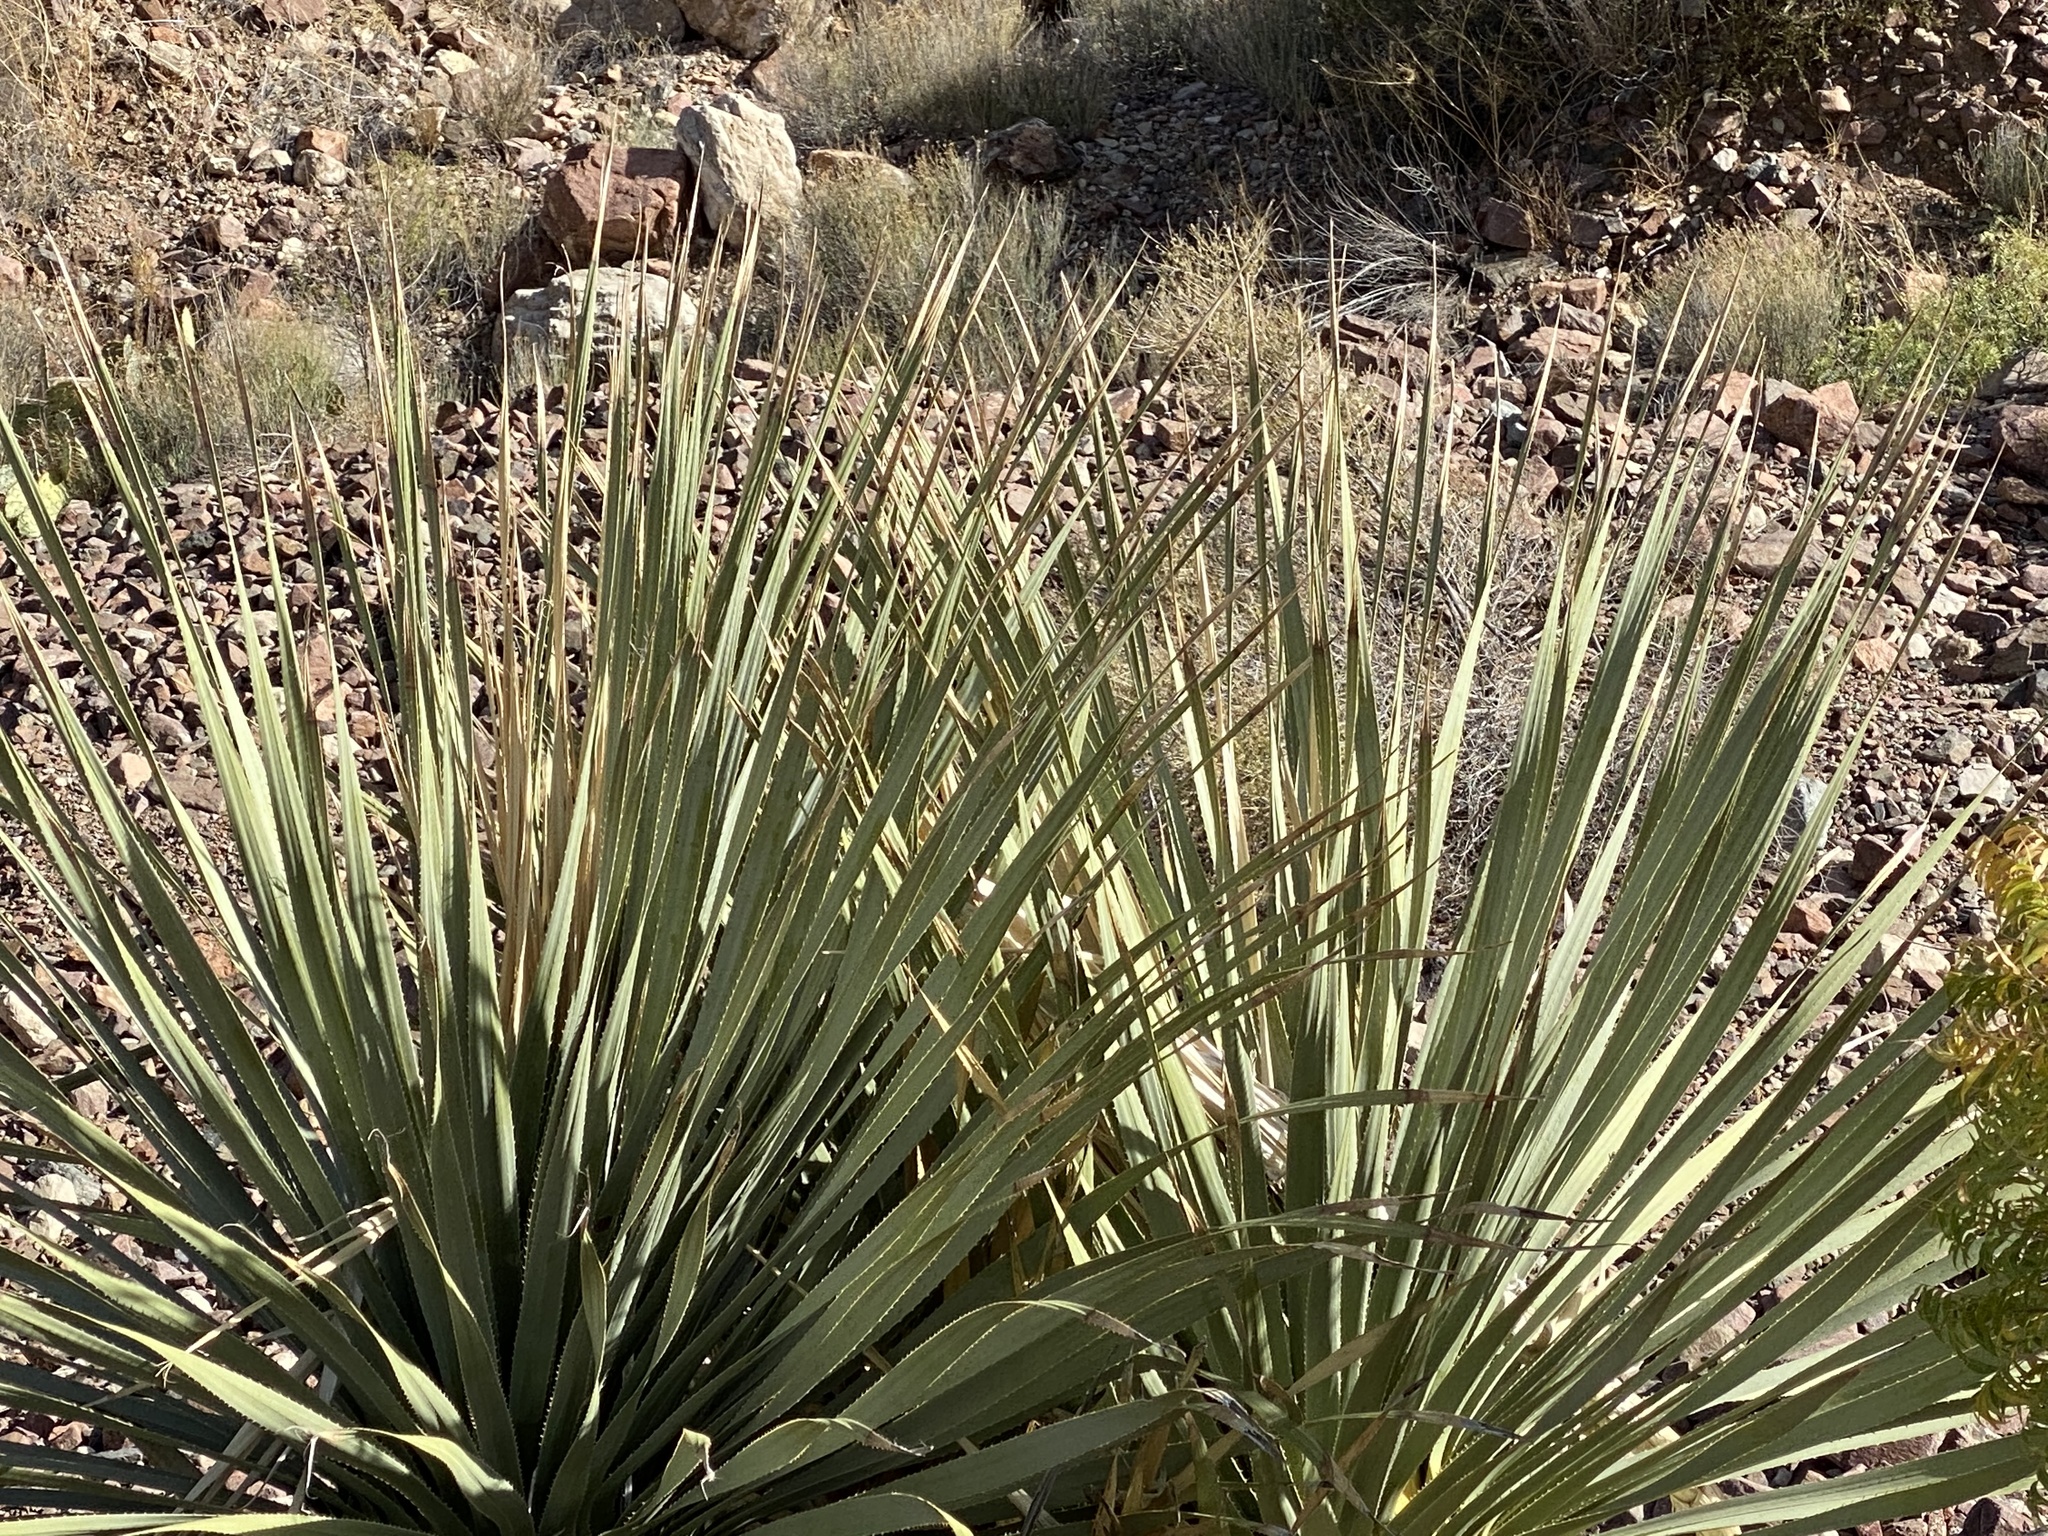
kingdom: Plantae
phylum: Tracheophyta
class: Liliopsida
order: Asparagales
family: Asparagaceae
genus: Dasylirion
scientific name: Dasylirion wheeleri
